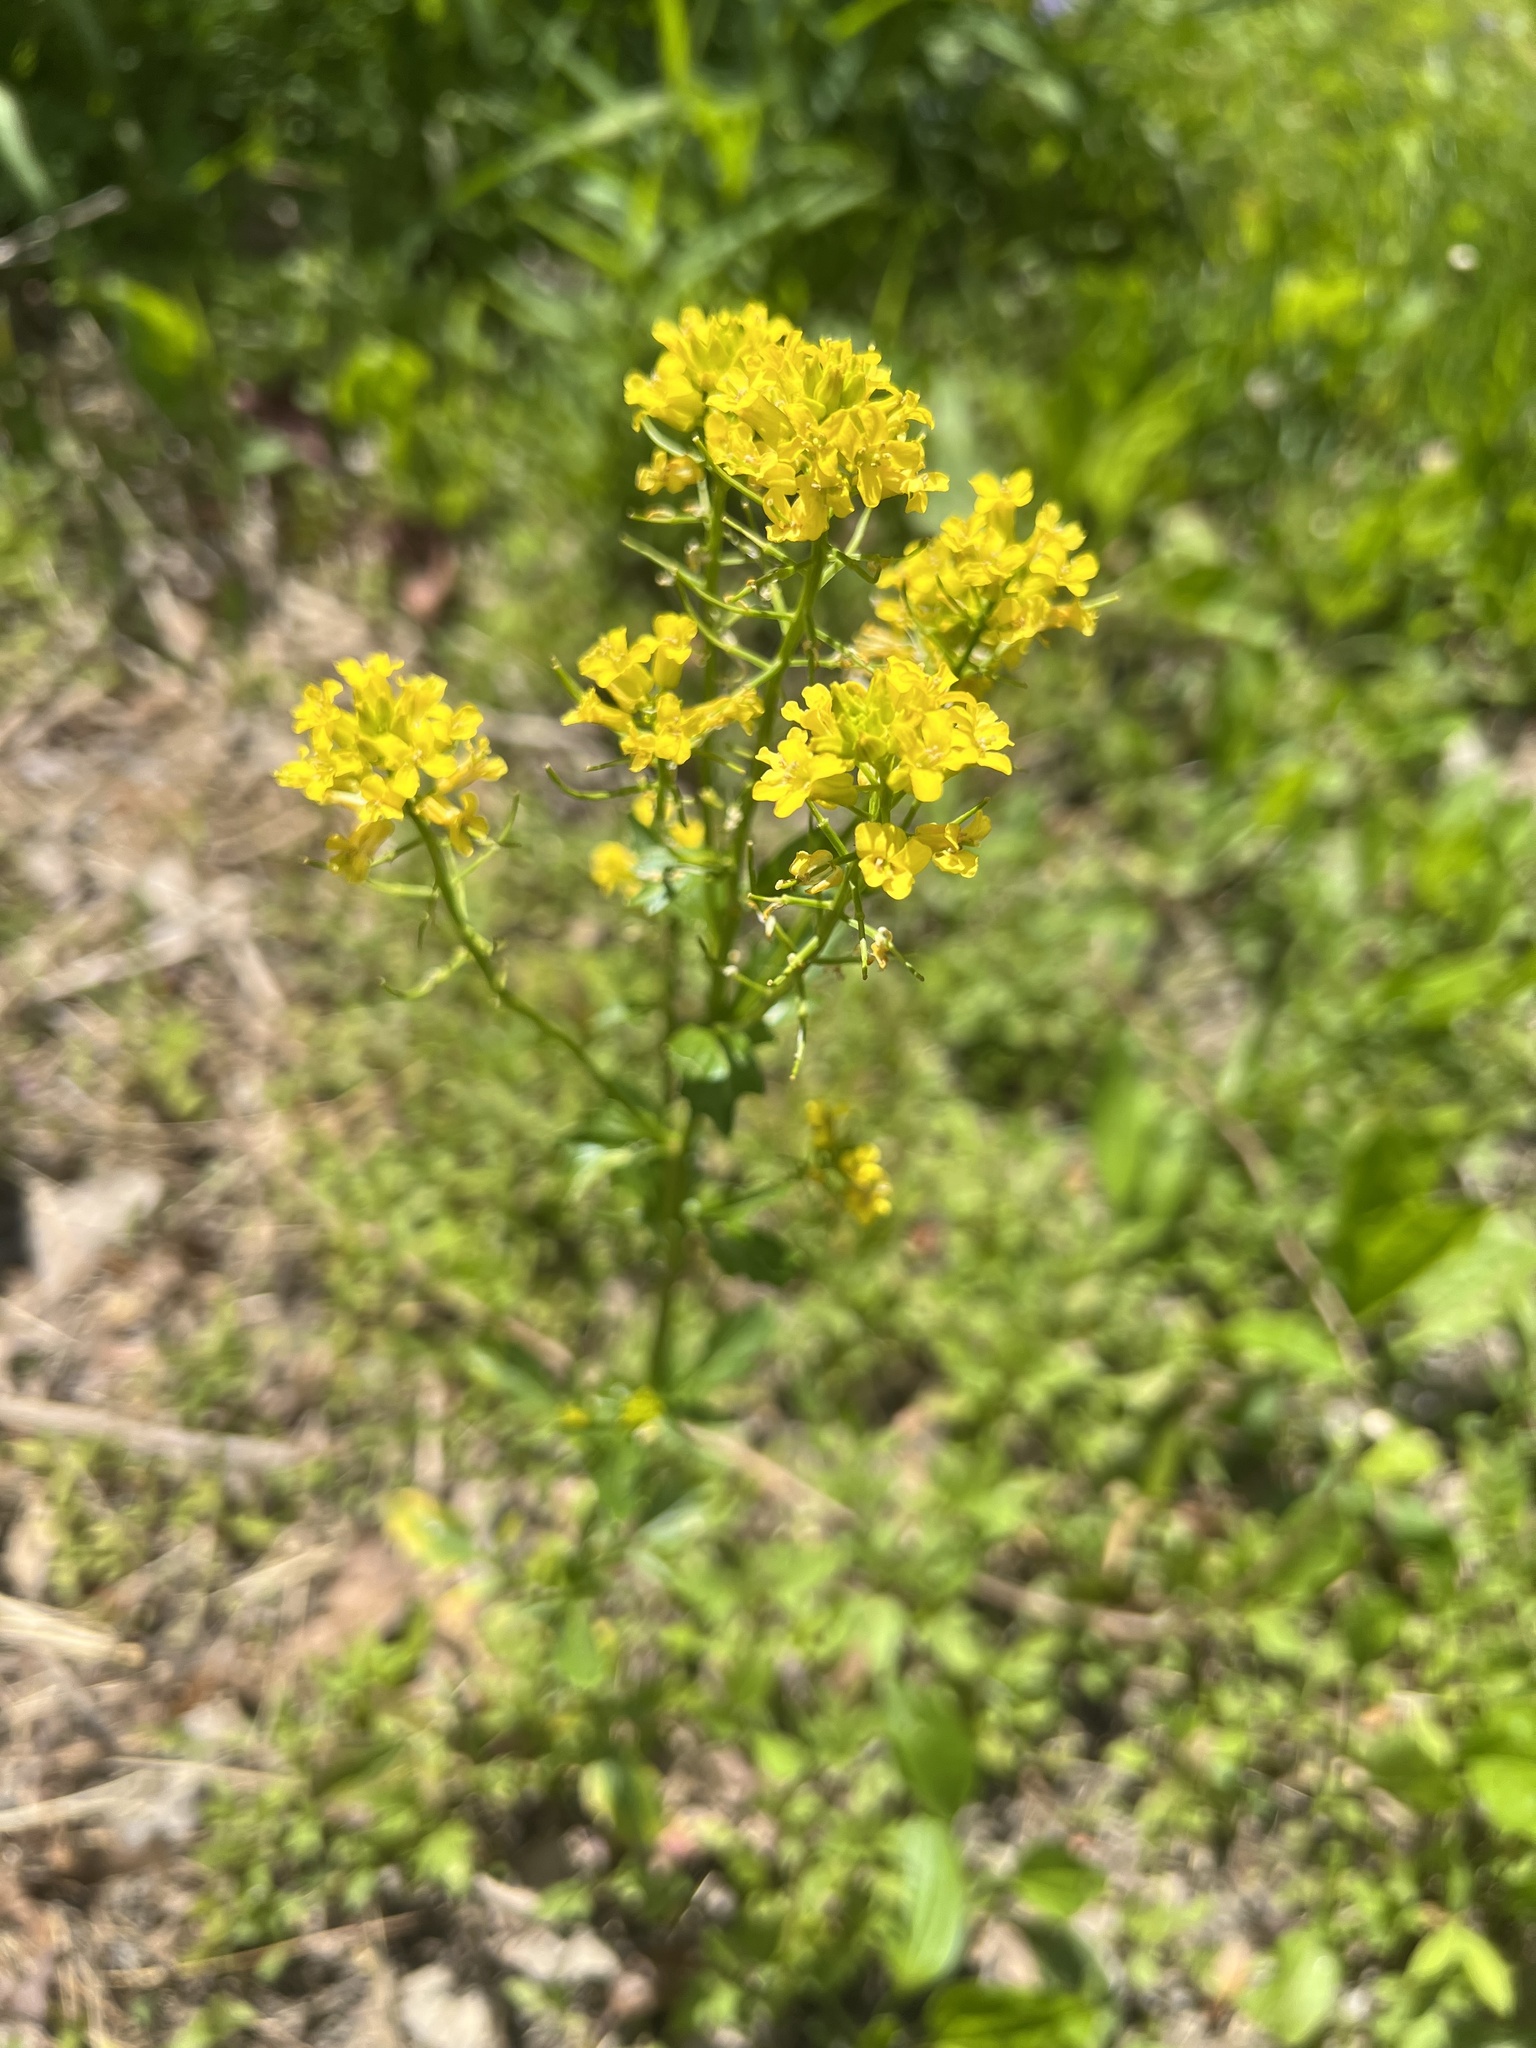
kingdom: Plantae
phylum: Tracheophyta
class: Magnoliopsida
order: Brassicales
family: Brassicaceae
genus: Barbarea
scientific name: Barbarea vulgaris
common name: Cressy-greens
